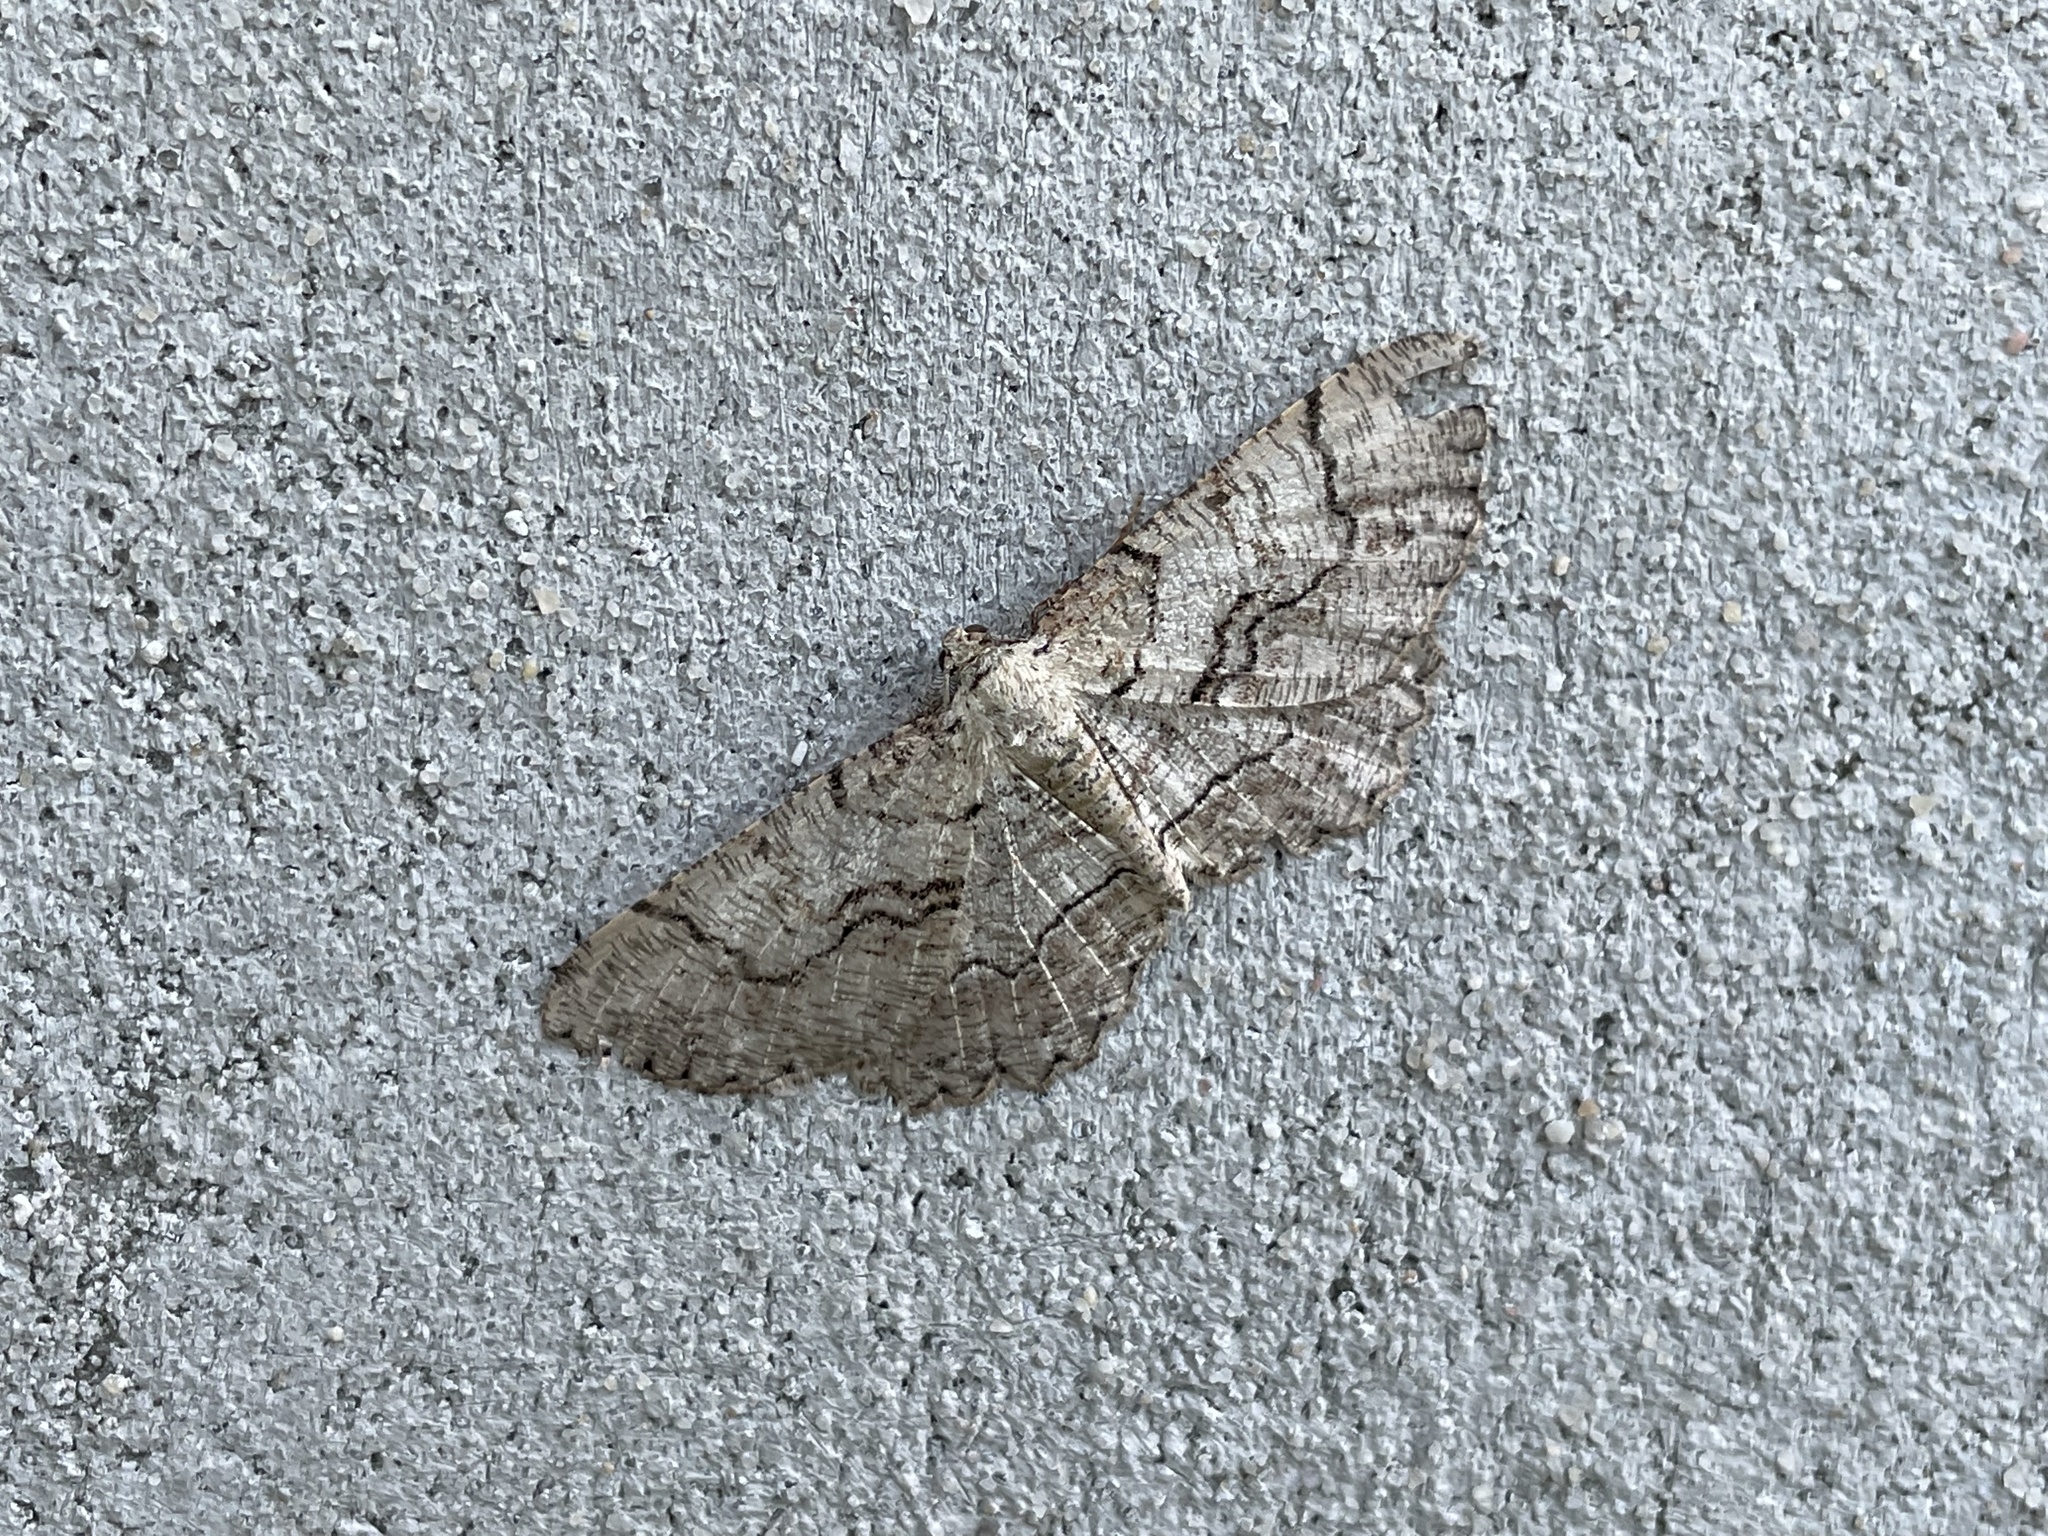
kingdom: Animalia
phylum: Arthropoda
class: Insecta
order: Lepidoptera
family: Geometridae
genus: Cymatophora
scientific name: Cymatophora approximaria
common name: Giant gray moth
